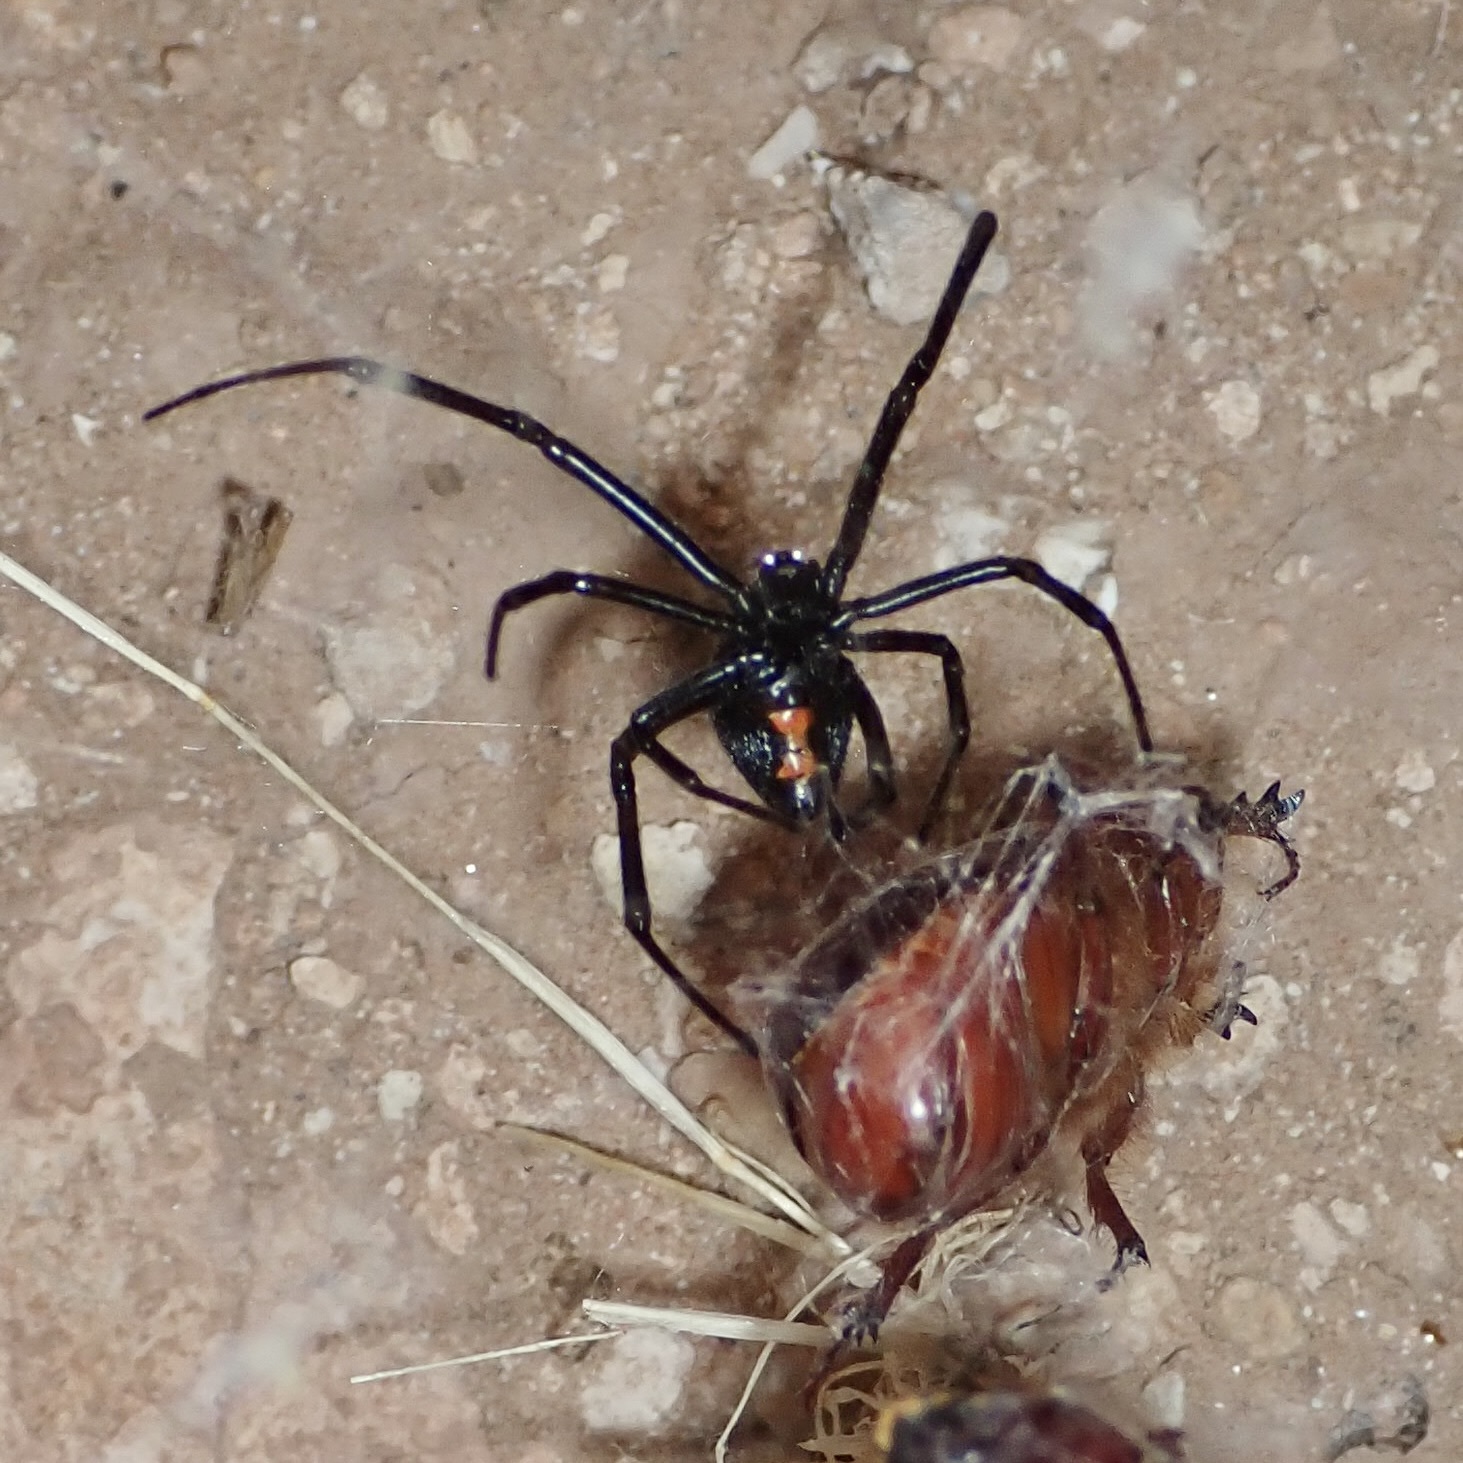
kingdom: Animalia
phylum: Arthropoda
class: Arachnida
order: Araneae
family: Theridiidae
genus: Latrodectus
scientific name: Latrodectus hesperus
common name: Western black widow
